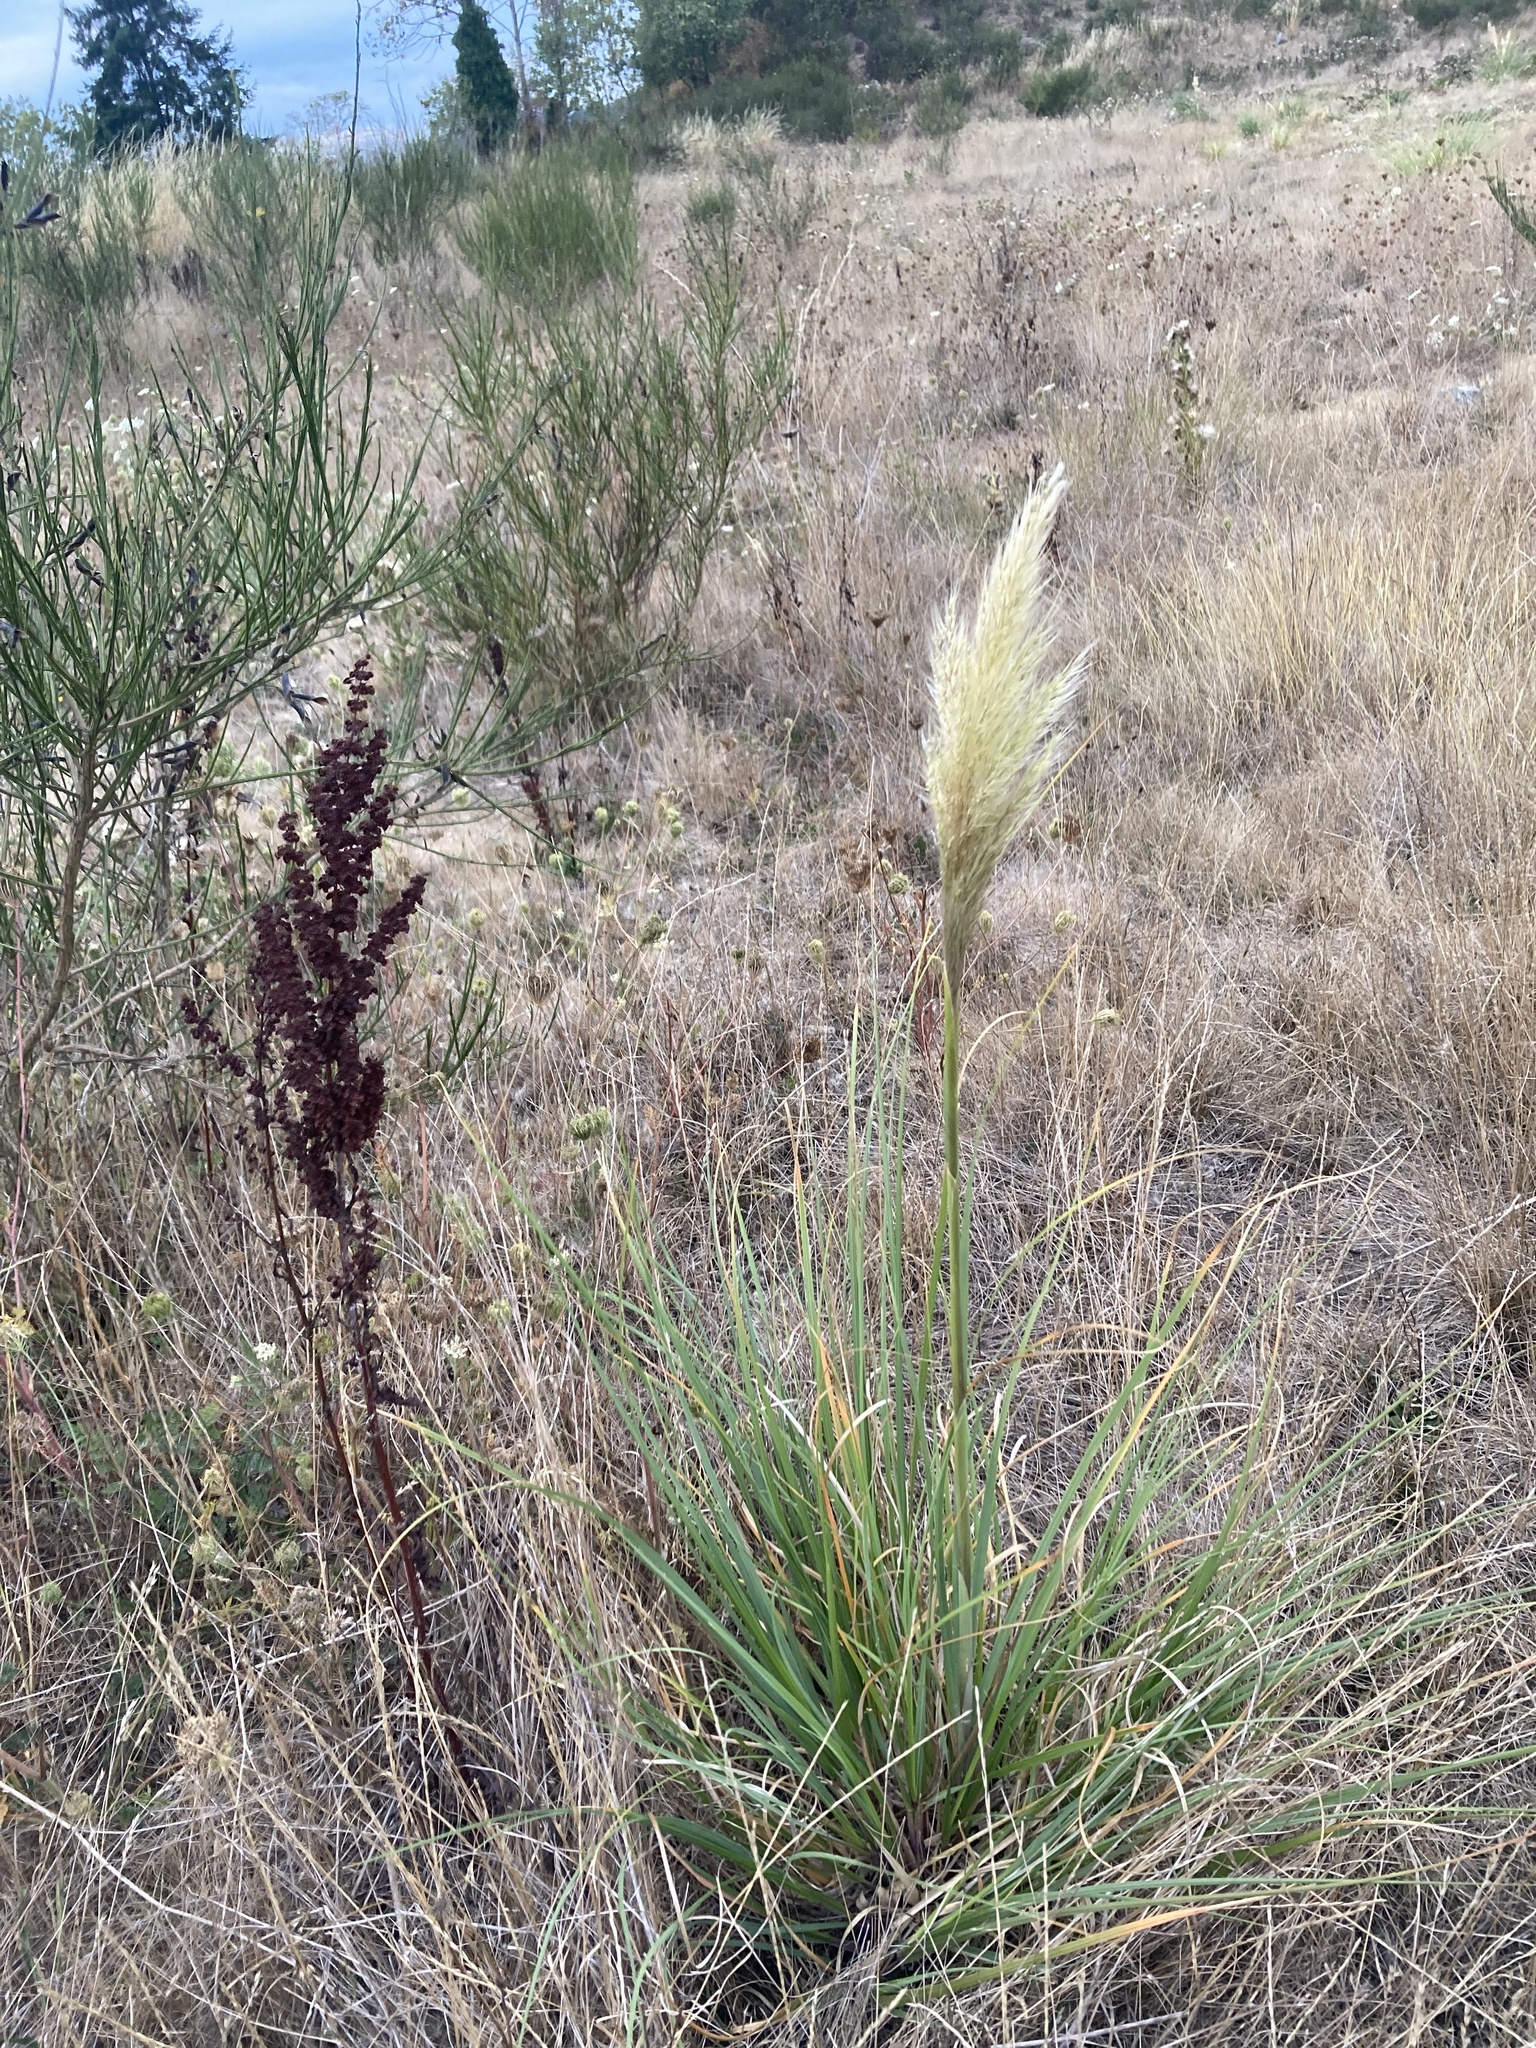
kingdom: Plantae
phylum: Tracheophyta
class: Liliopsida
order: Poales
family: Poaceae
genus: Cortaderia
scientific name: Cortaderia selloana
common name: Uruguayan pampas grass
